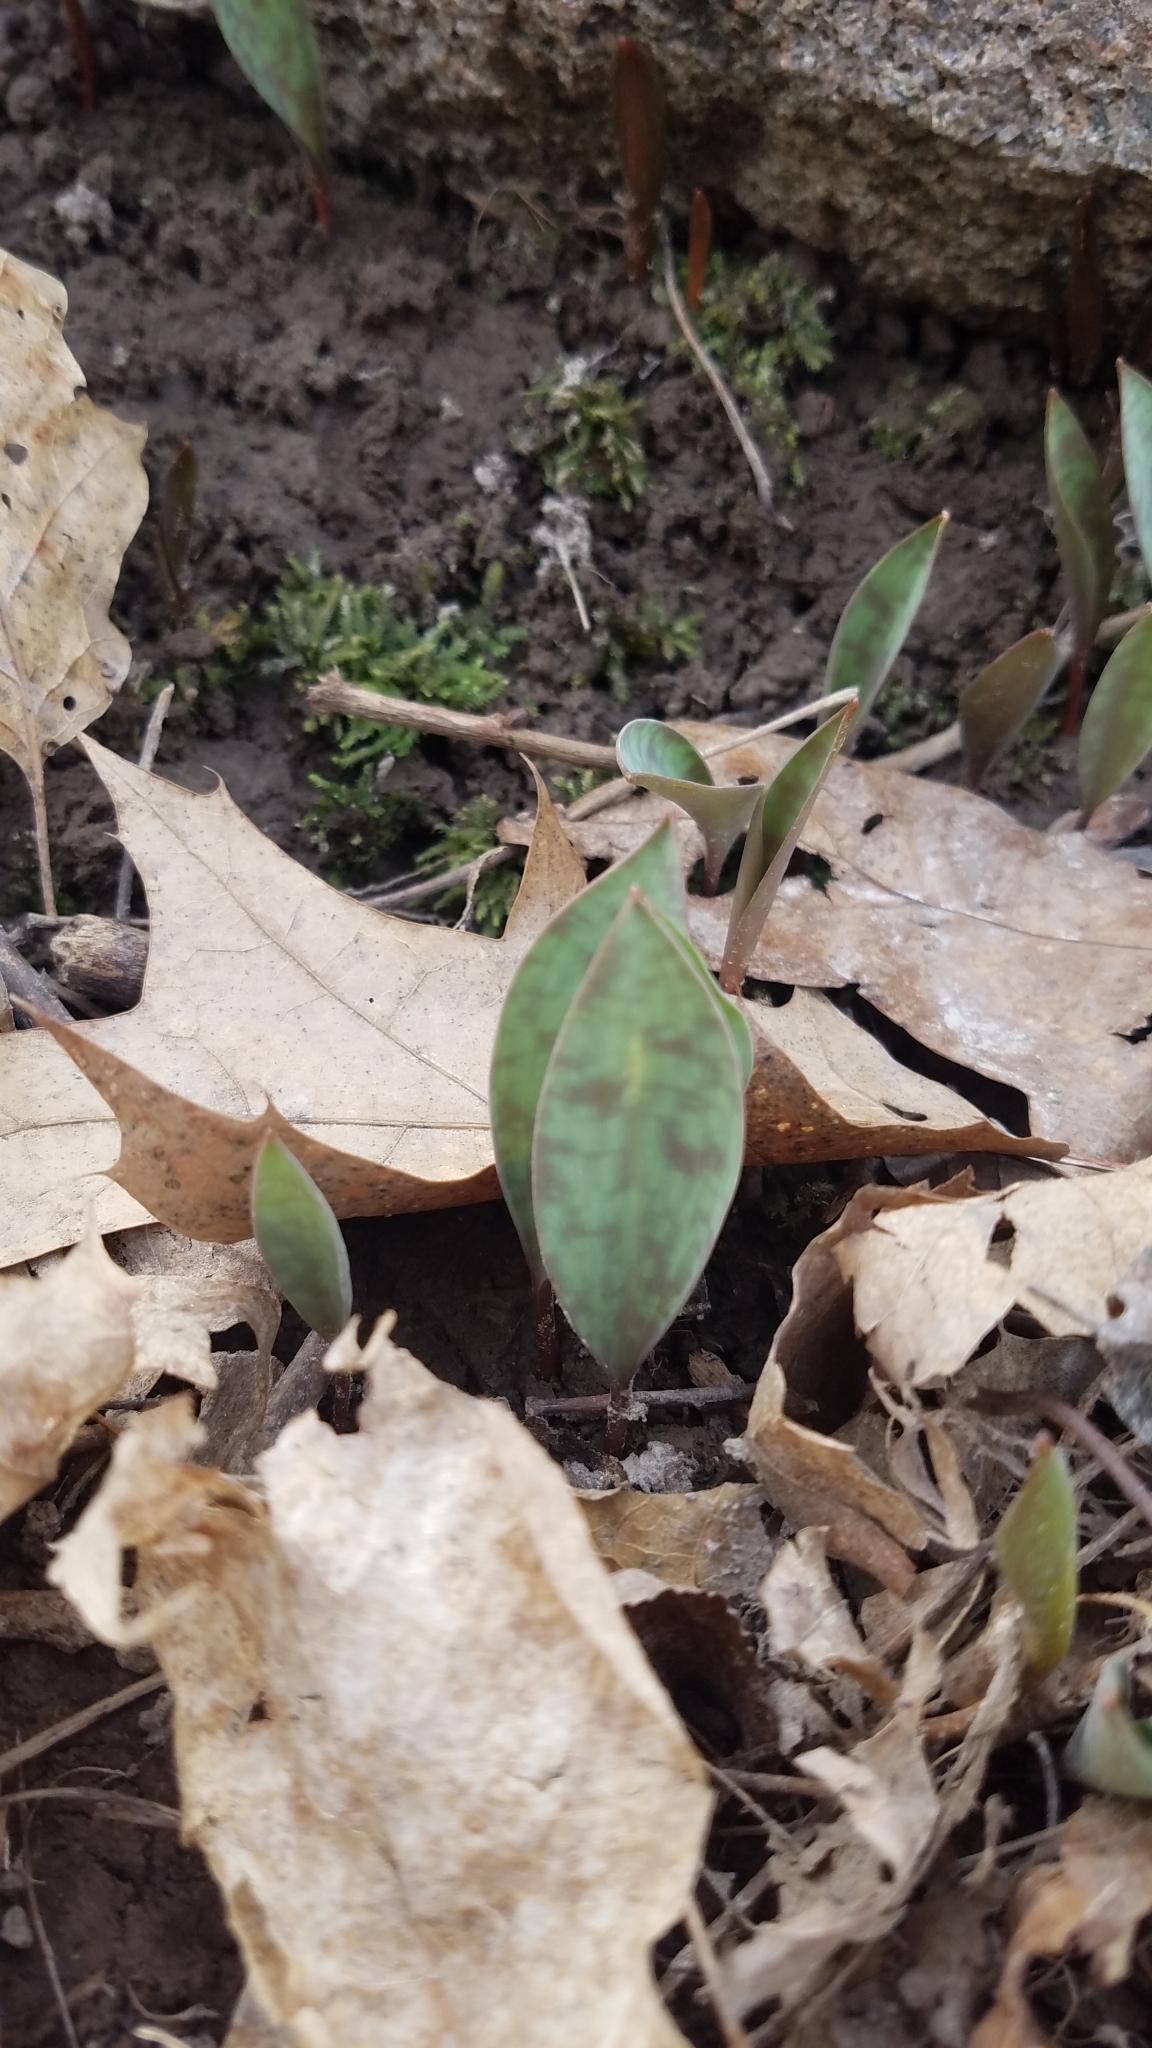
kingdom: Plantae
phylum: Tracheophyta
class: Liliopsida
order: Liliales
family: Liliaceae
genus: Erythronium
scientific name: Erythronium
